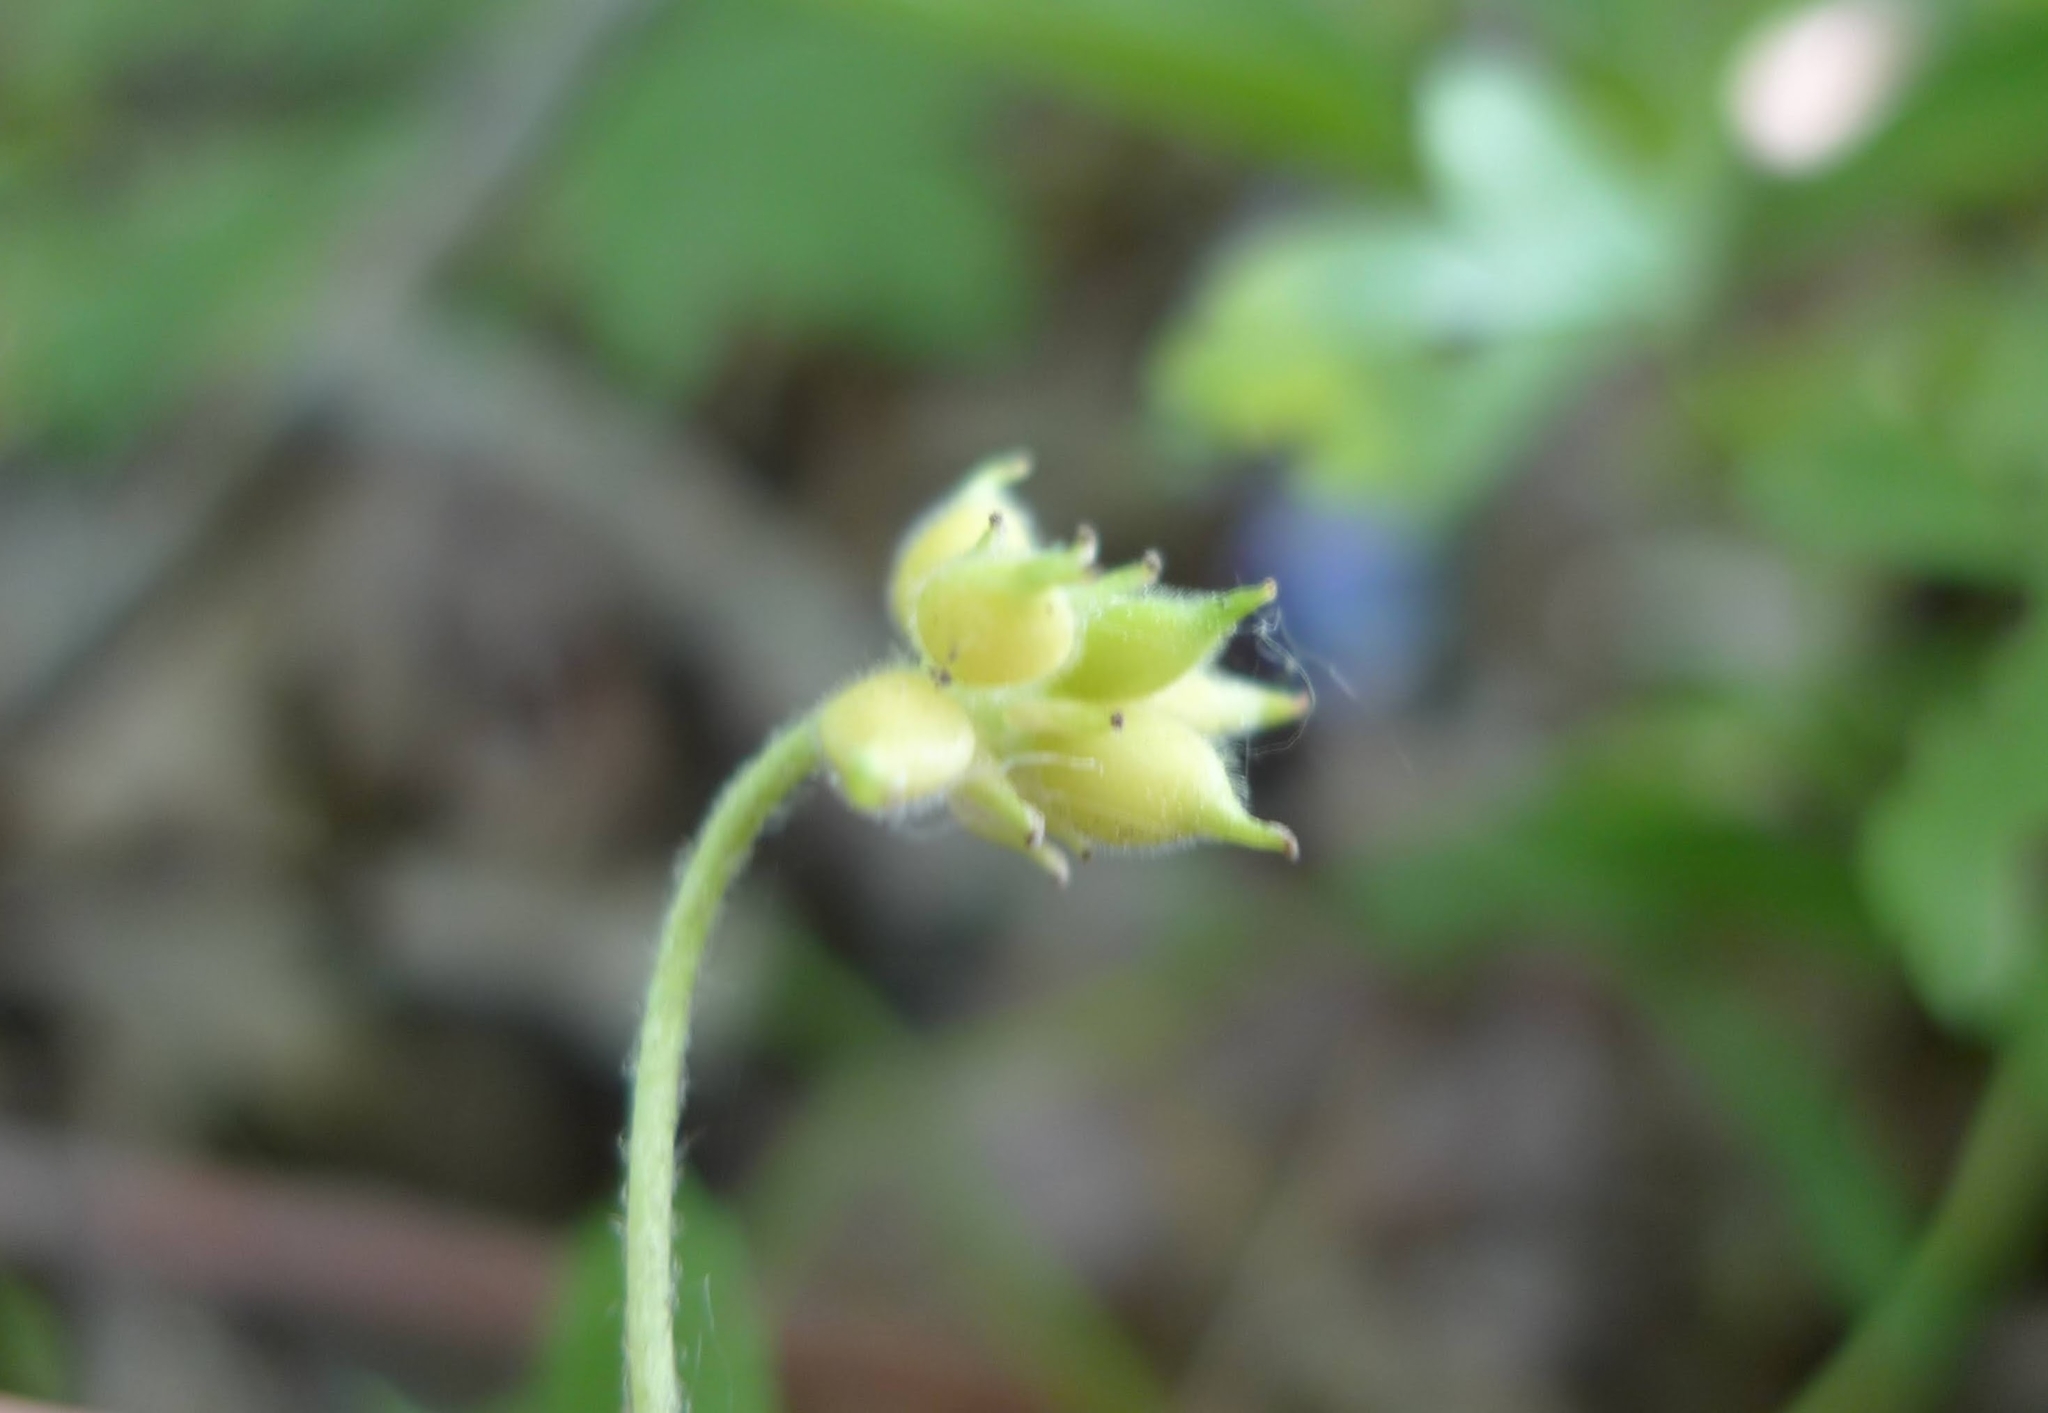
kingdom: Plantae
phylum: Tracheophyta
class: Magnoliopsida
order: Ranunculales
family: Ranunculaceae
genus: Anemone
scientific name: Anemone nemorosa
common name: Wood anemone
